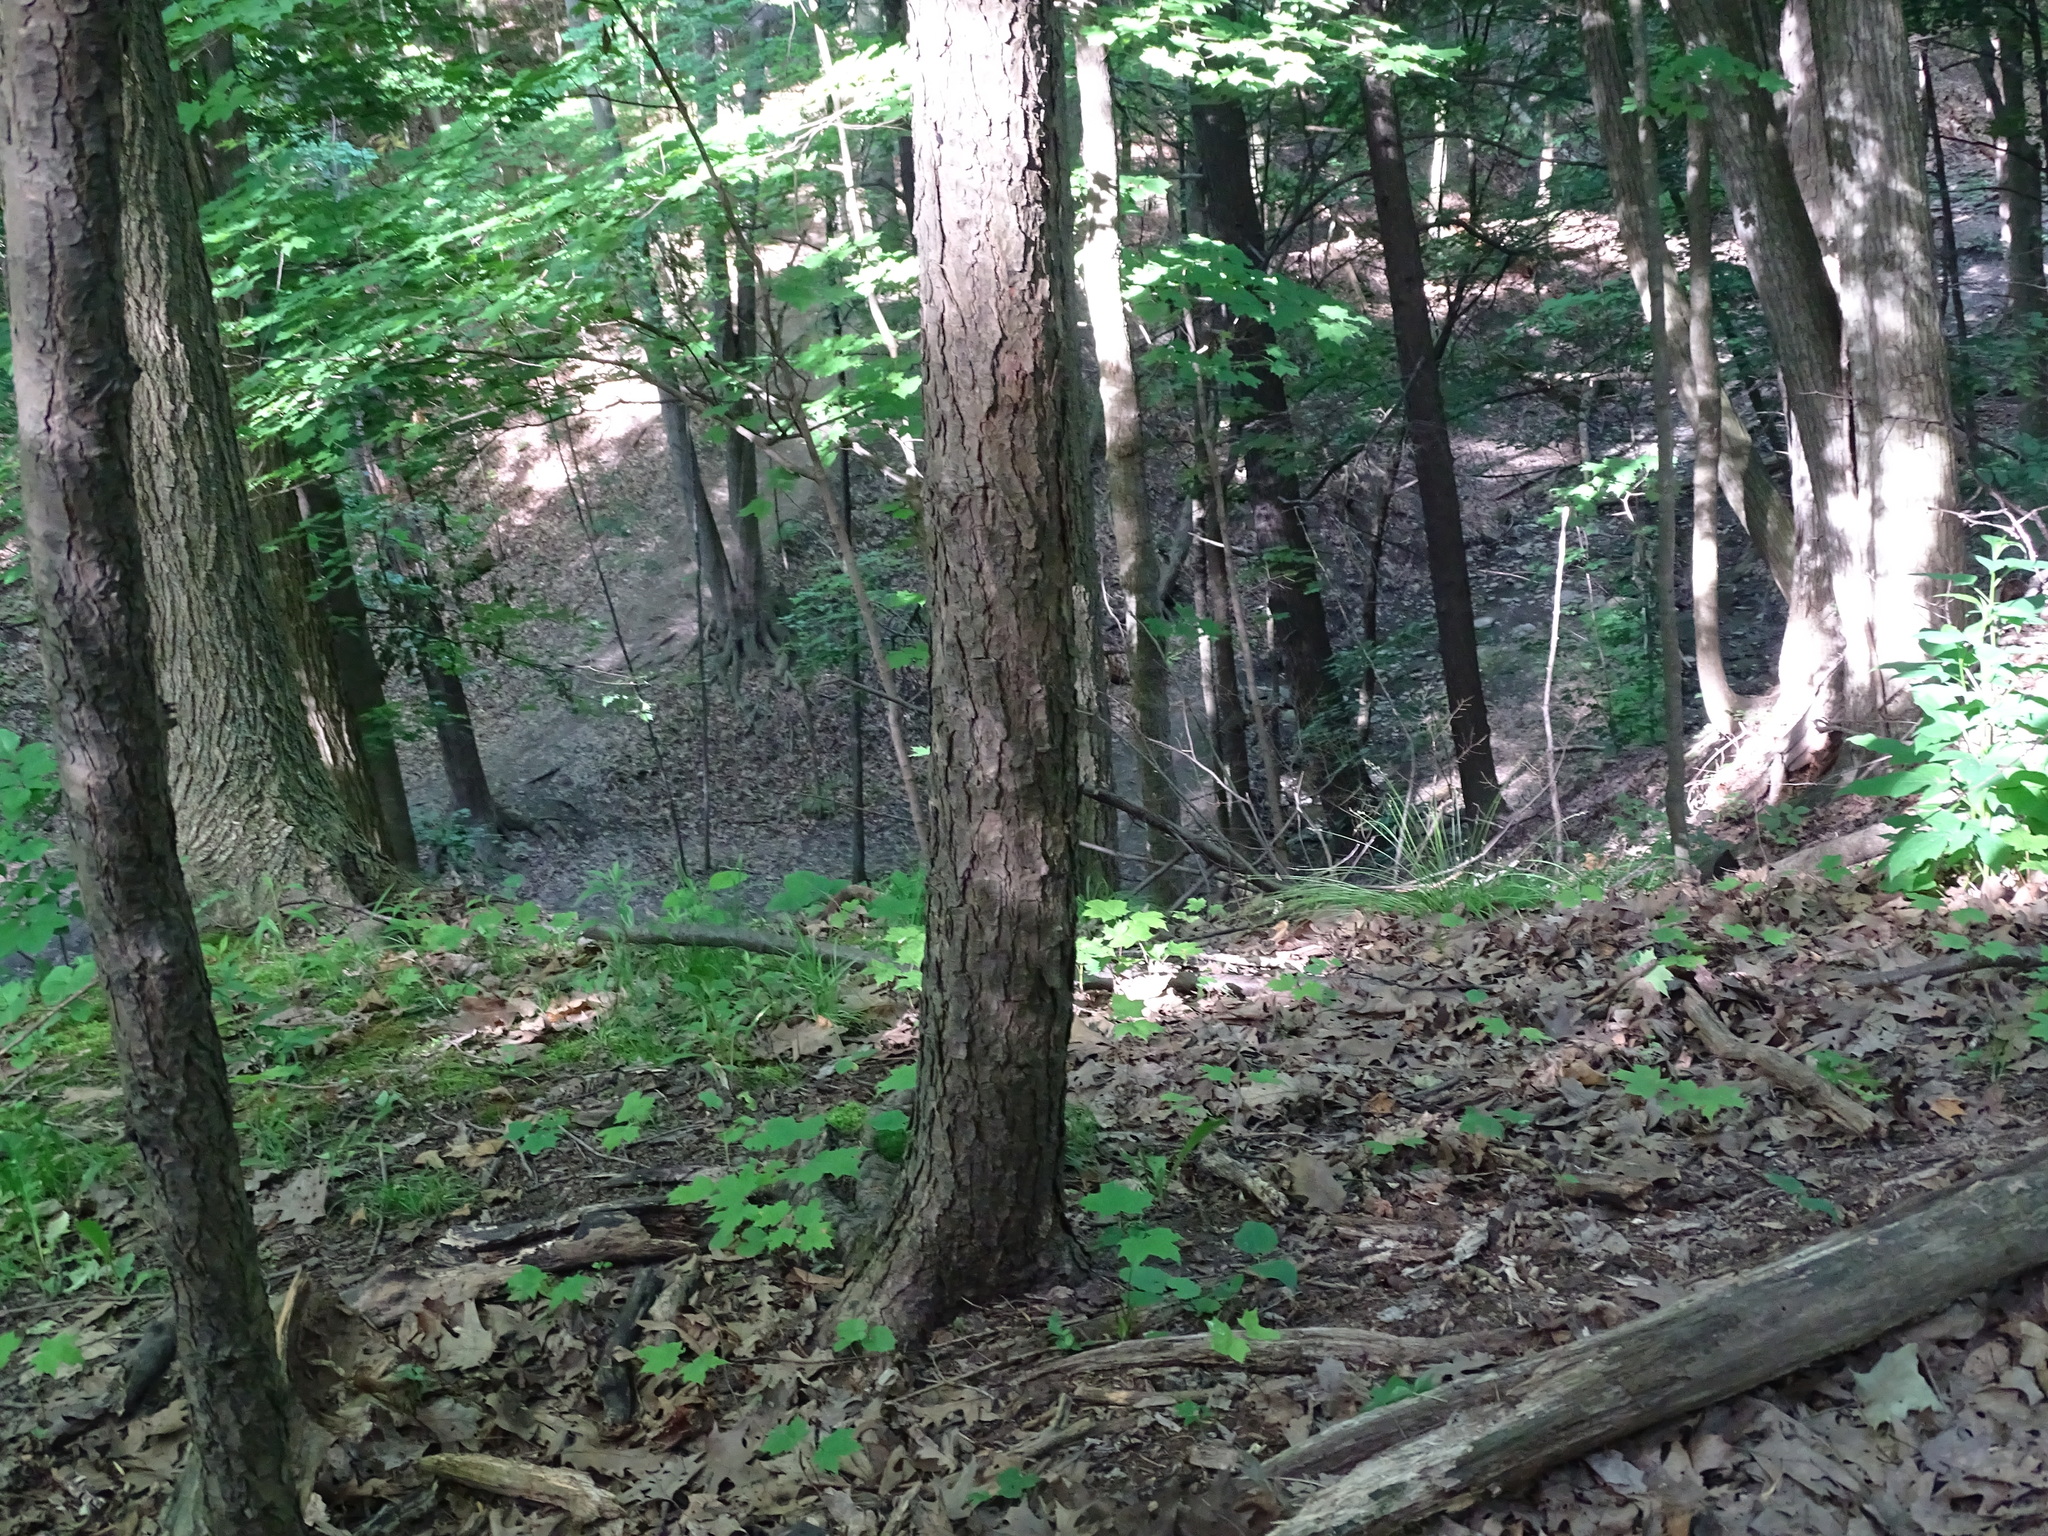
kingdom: Plantae
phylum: Tracheophyta
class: Pinopsida
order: Pinales
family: Pinaceae
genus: Tsuga
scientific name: Tsuga canadensis
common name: Eastern hemlock
